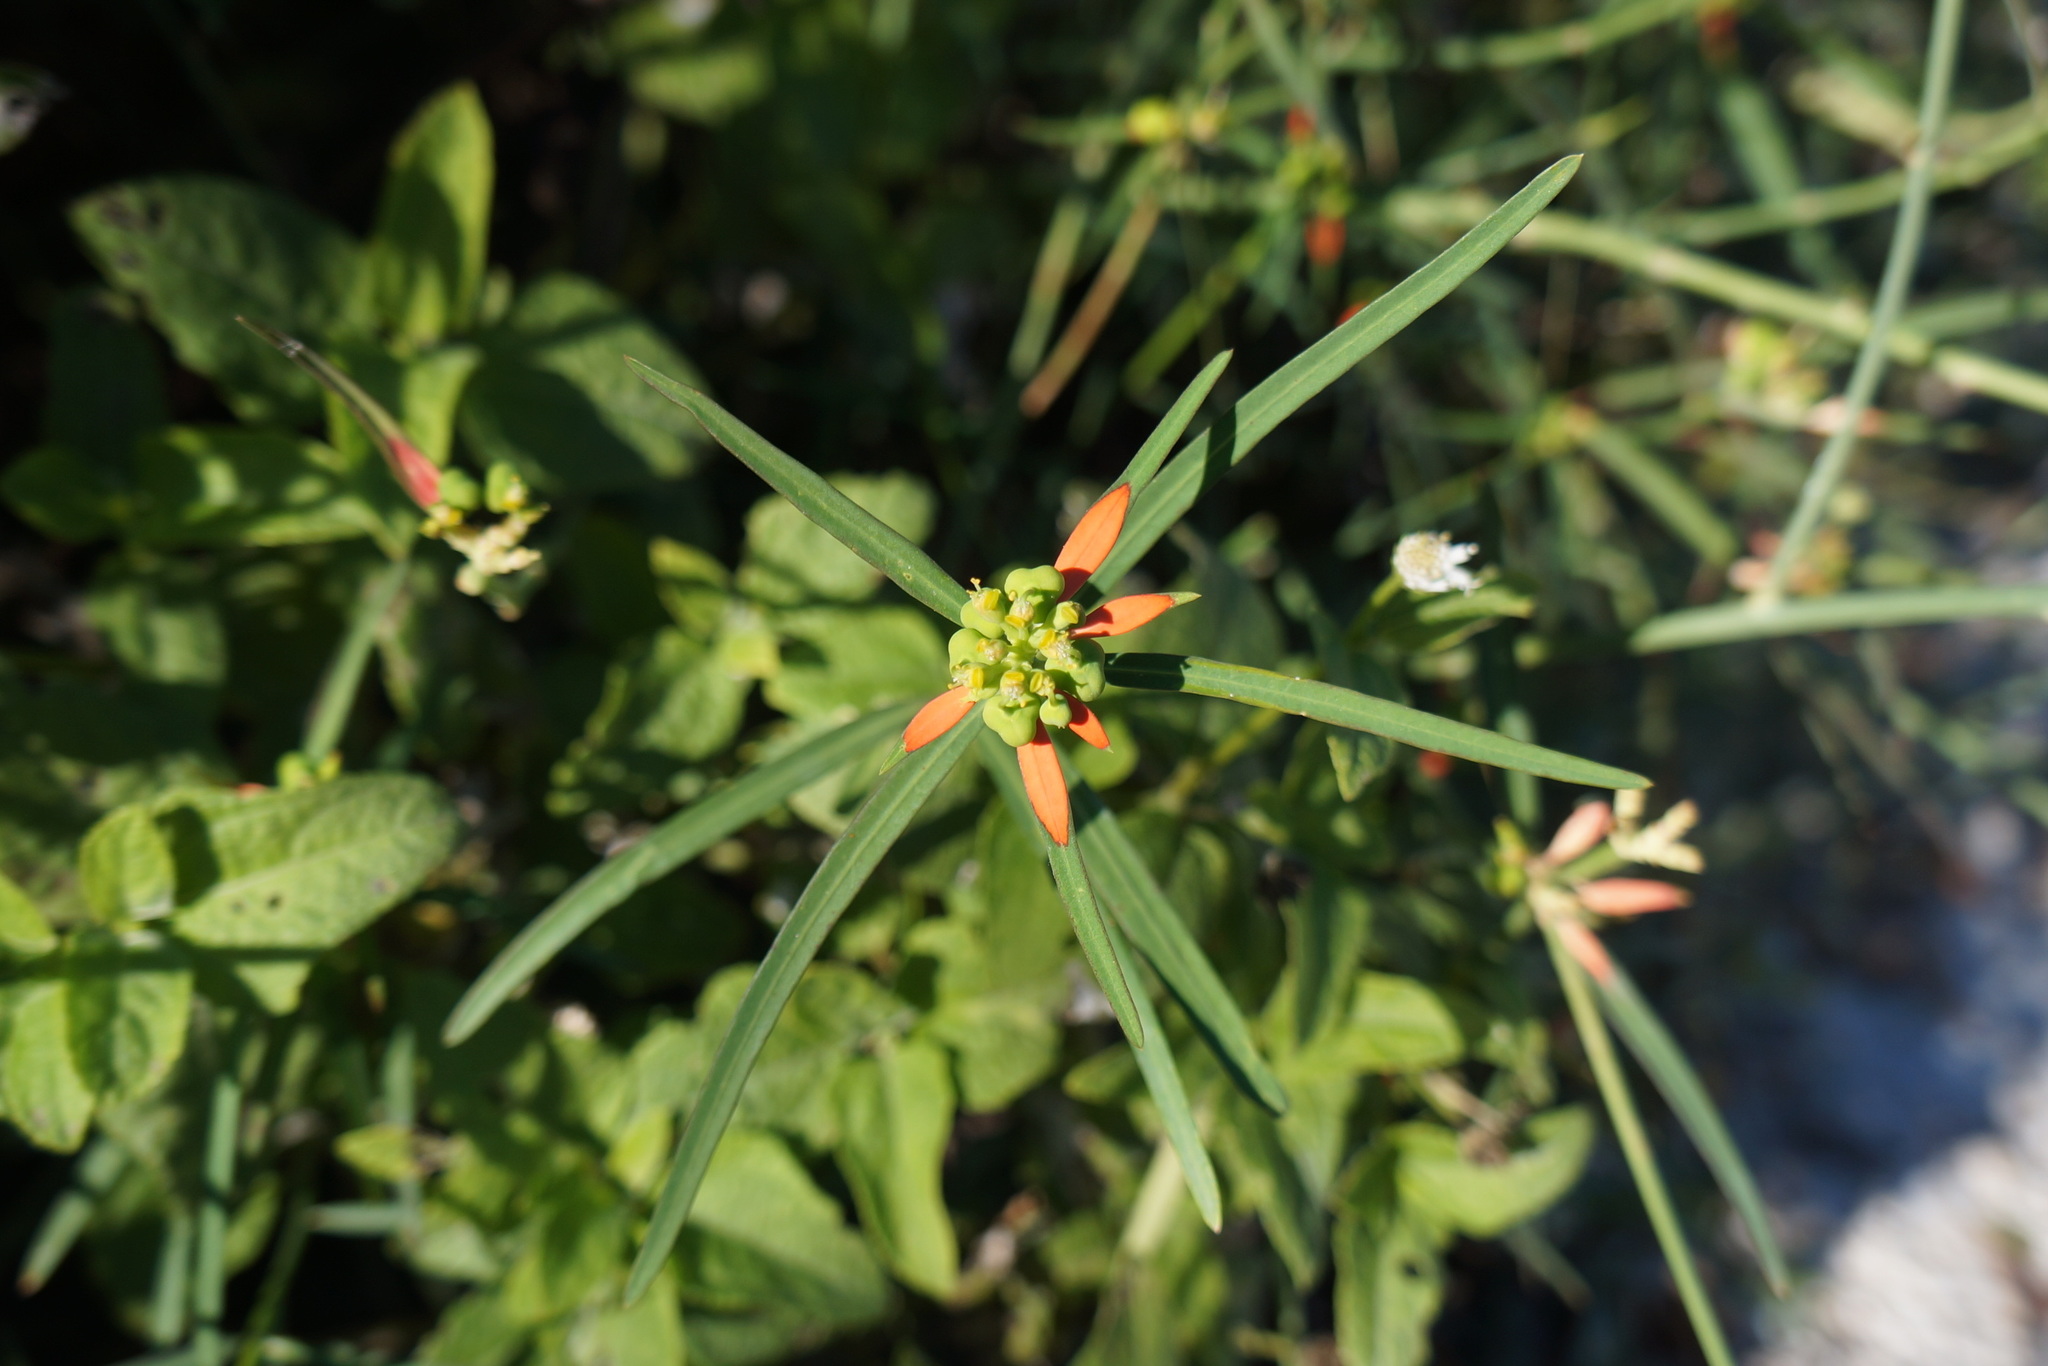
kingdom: Plantae
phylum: Tracheophyta
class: Magnoliopsida
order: Malpighiales
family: Euphorbiaceae
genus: Euphorbia
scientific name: Euphorbia heterophylla
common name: Mexican fireplant
